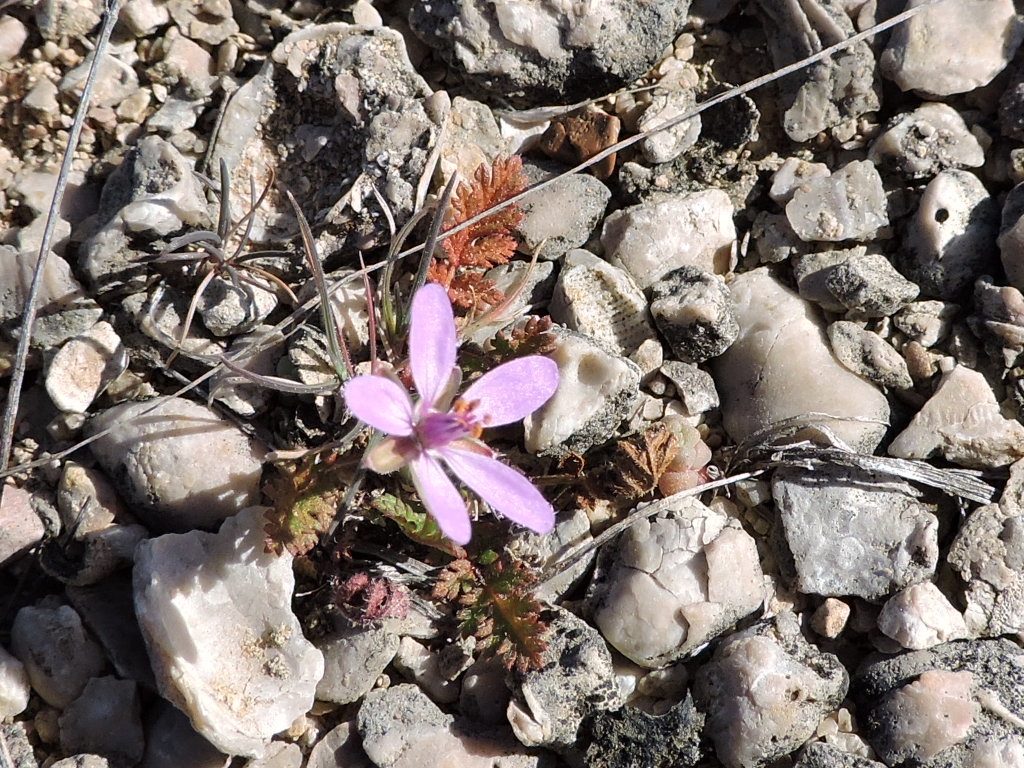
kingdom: Plantae
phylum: Tracheophyta
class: Magnoliopsida
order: Geraniales
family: Geraniaceae
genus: Erodium
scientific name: Erodium cicutarium
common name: Common stork's-bill
